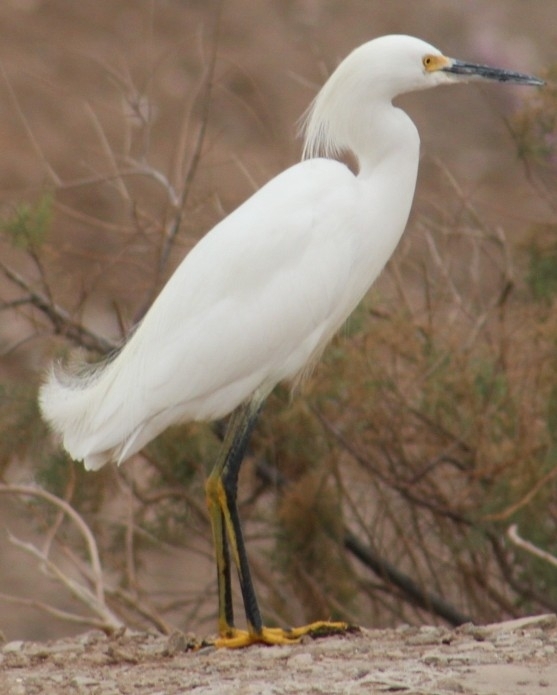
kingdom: Animalia
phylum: Chordata
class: Aves
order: Pelecaniformes
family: Ardeidae
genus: Egretta
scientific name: Egretta thula
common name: Snowy egret
